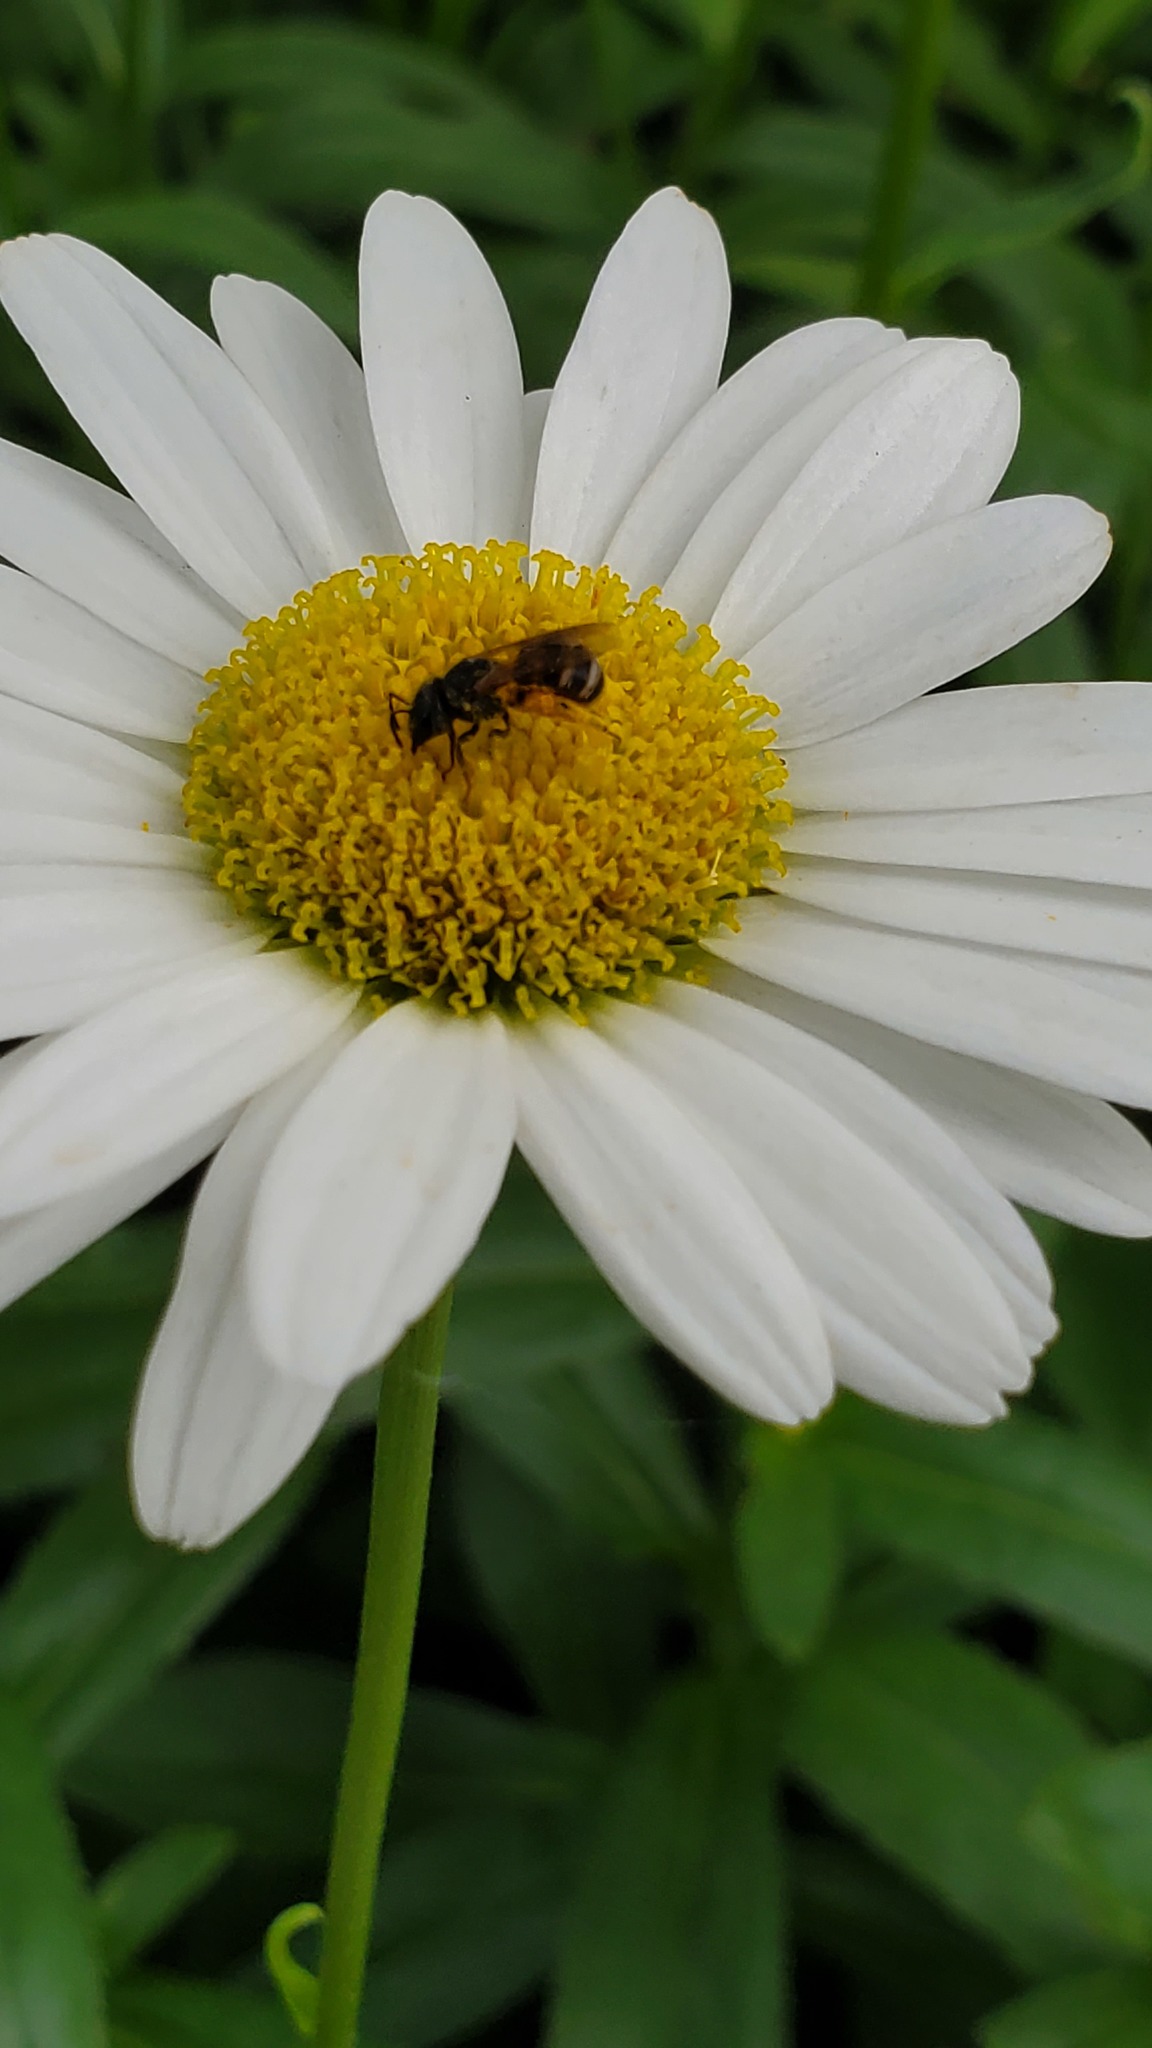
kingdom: Animalia
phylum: Arthropoda
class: Insecta
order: Hymenoptera
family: Halictidae
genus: Halictus
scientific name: Halictus ligatus
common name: Ligated furrow bee
